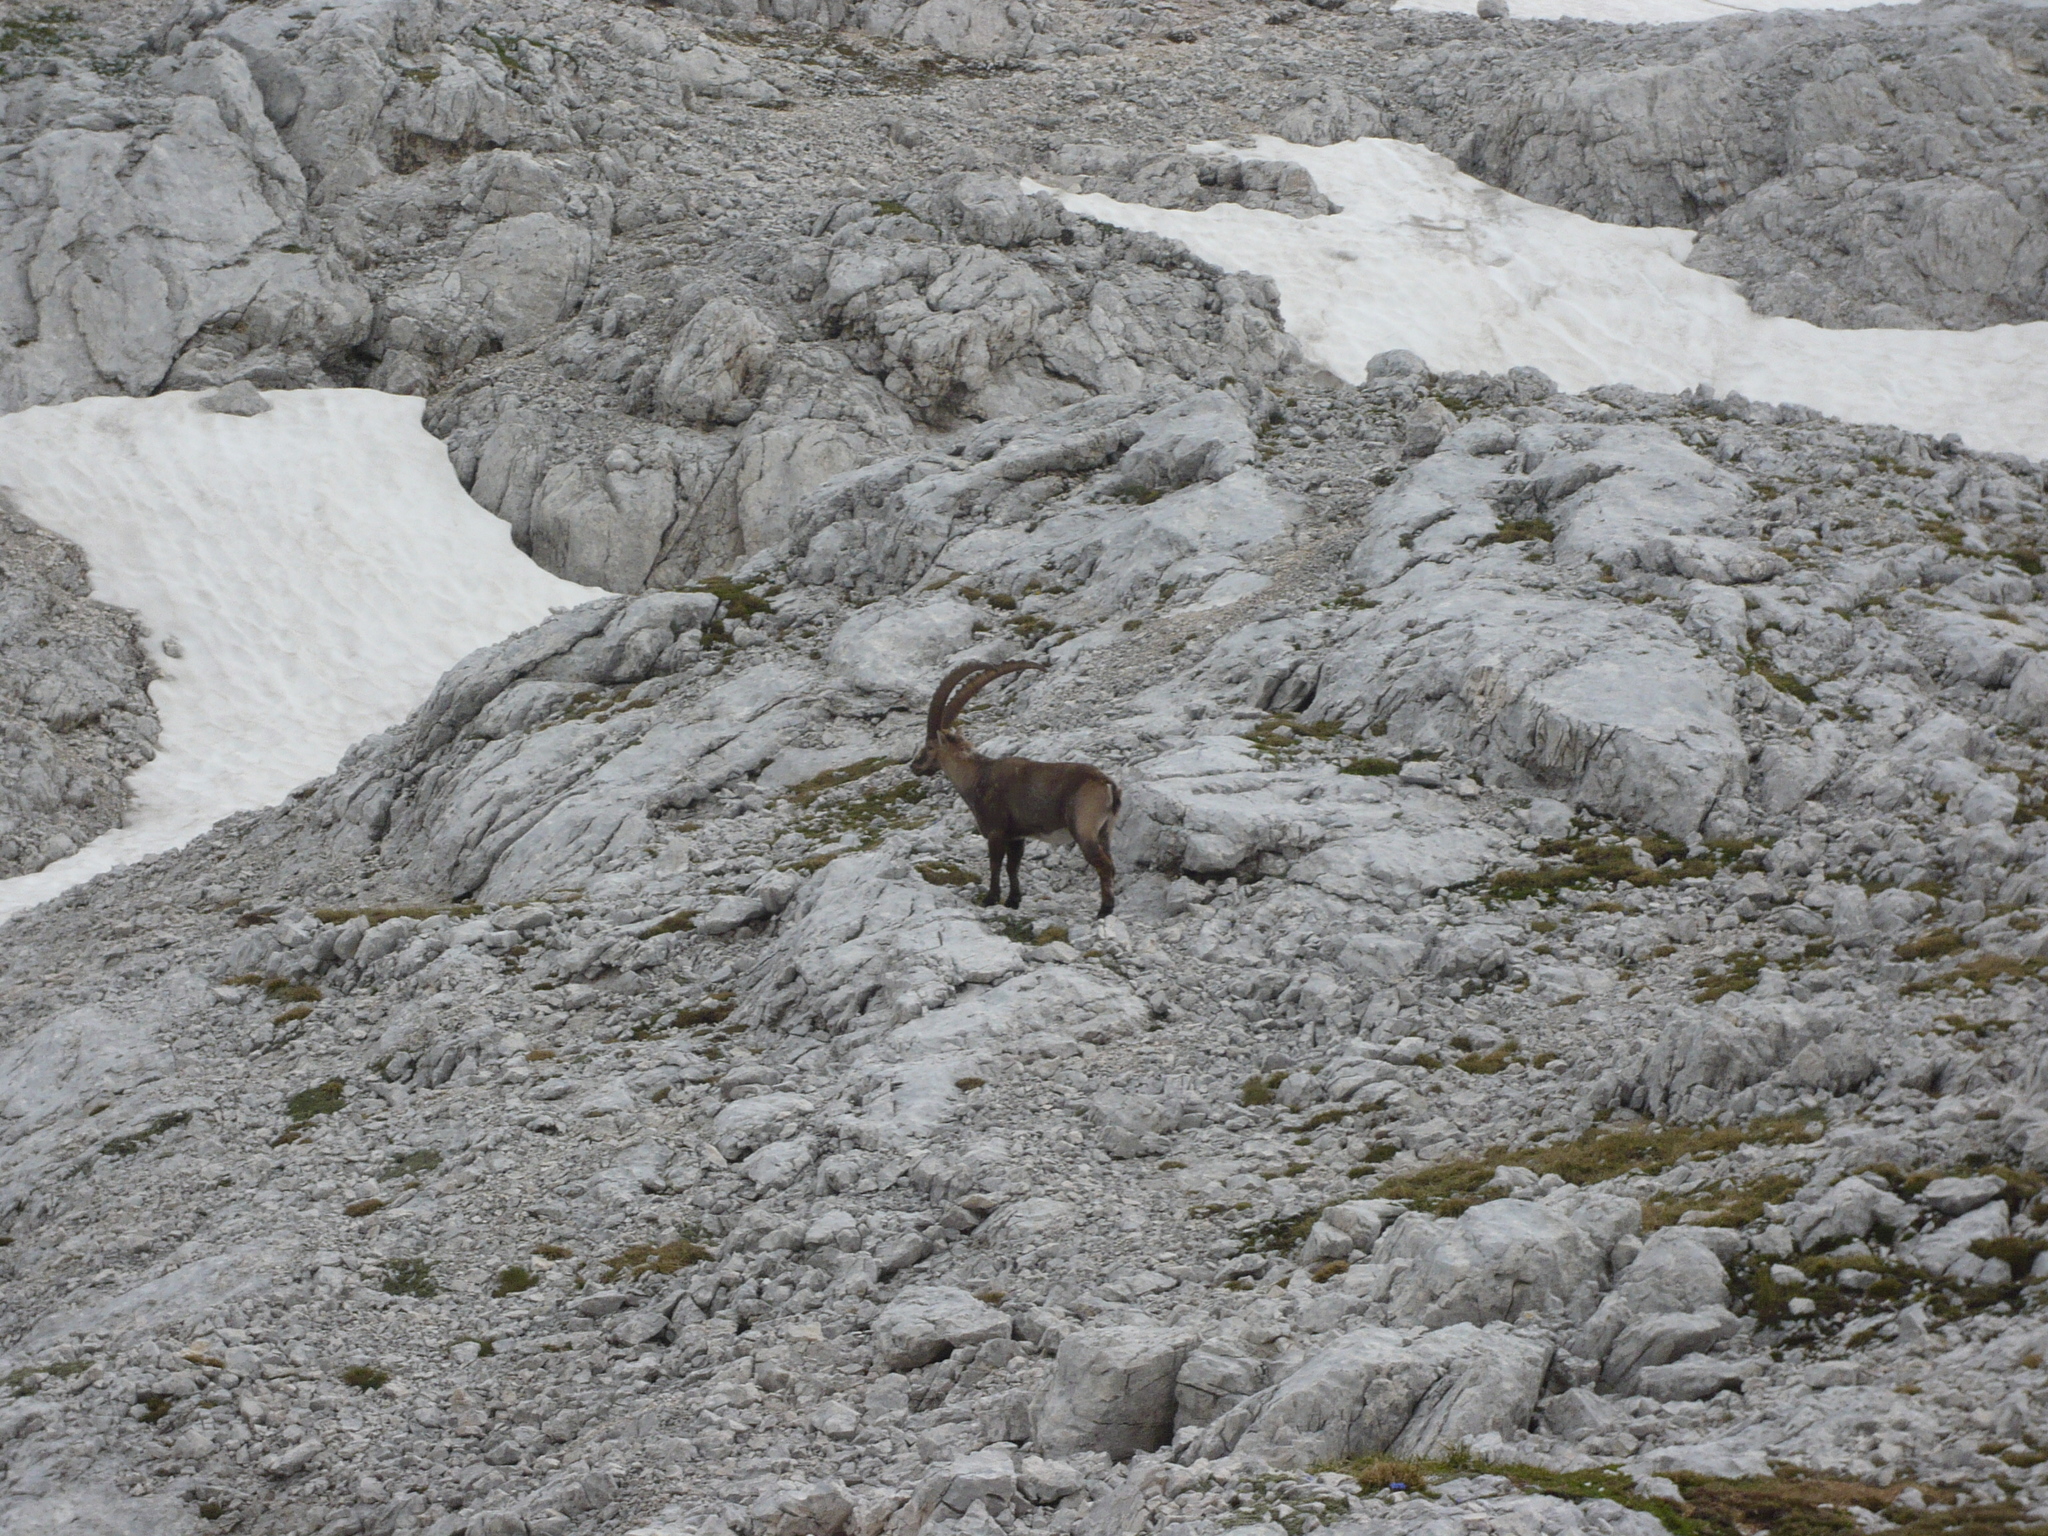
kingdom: Animalia
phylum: Chordata
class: Mammalia
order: Artiodactyla
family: Bovidae
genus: Capra
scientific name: Capra ibex
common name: Alpine ibex
